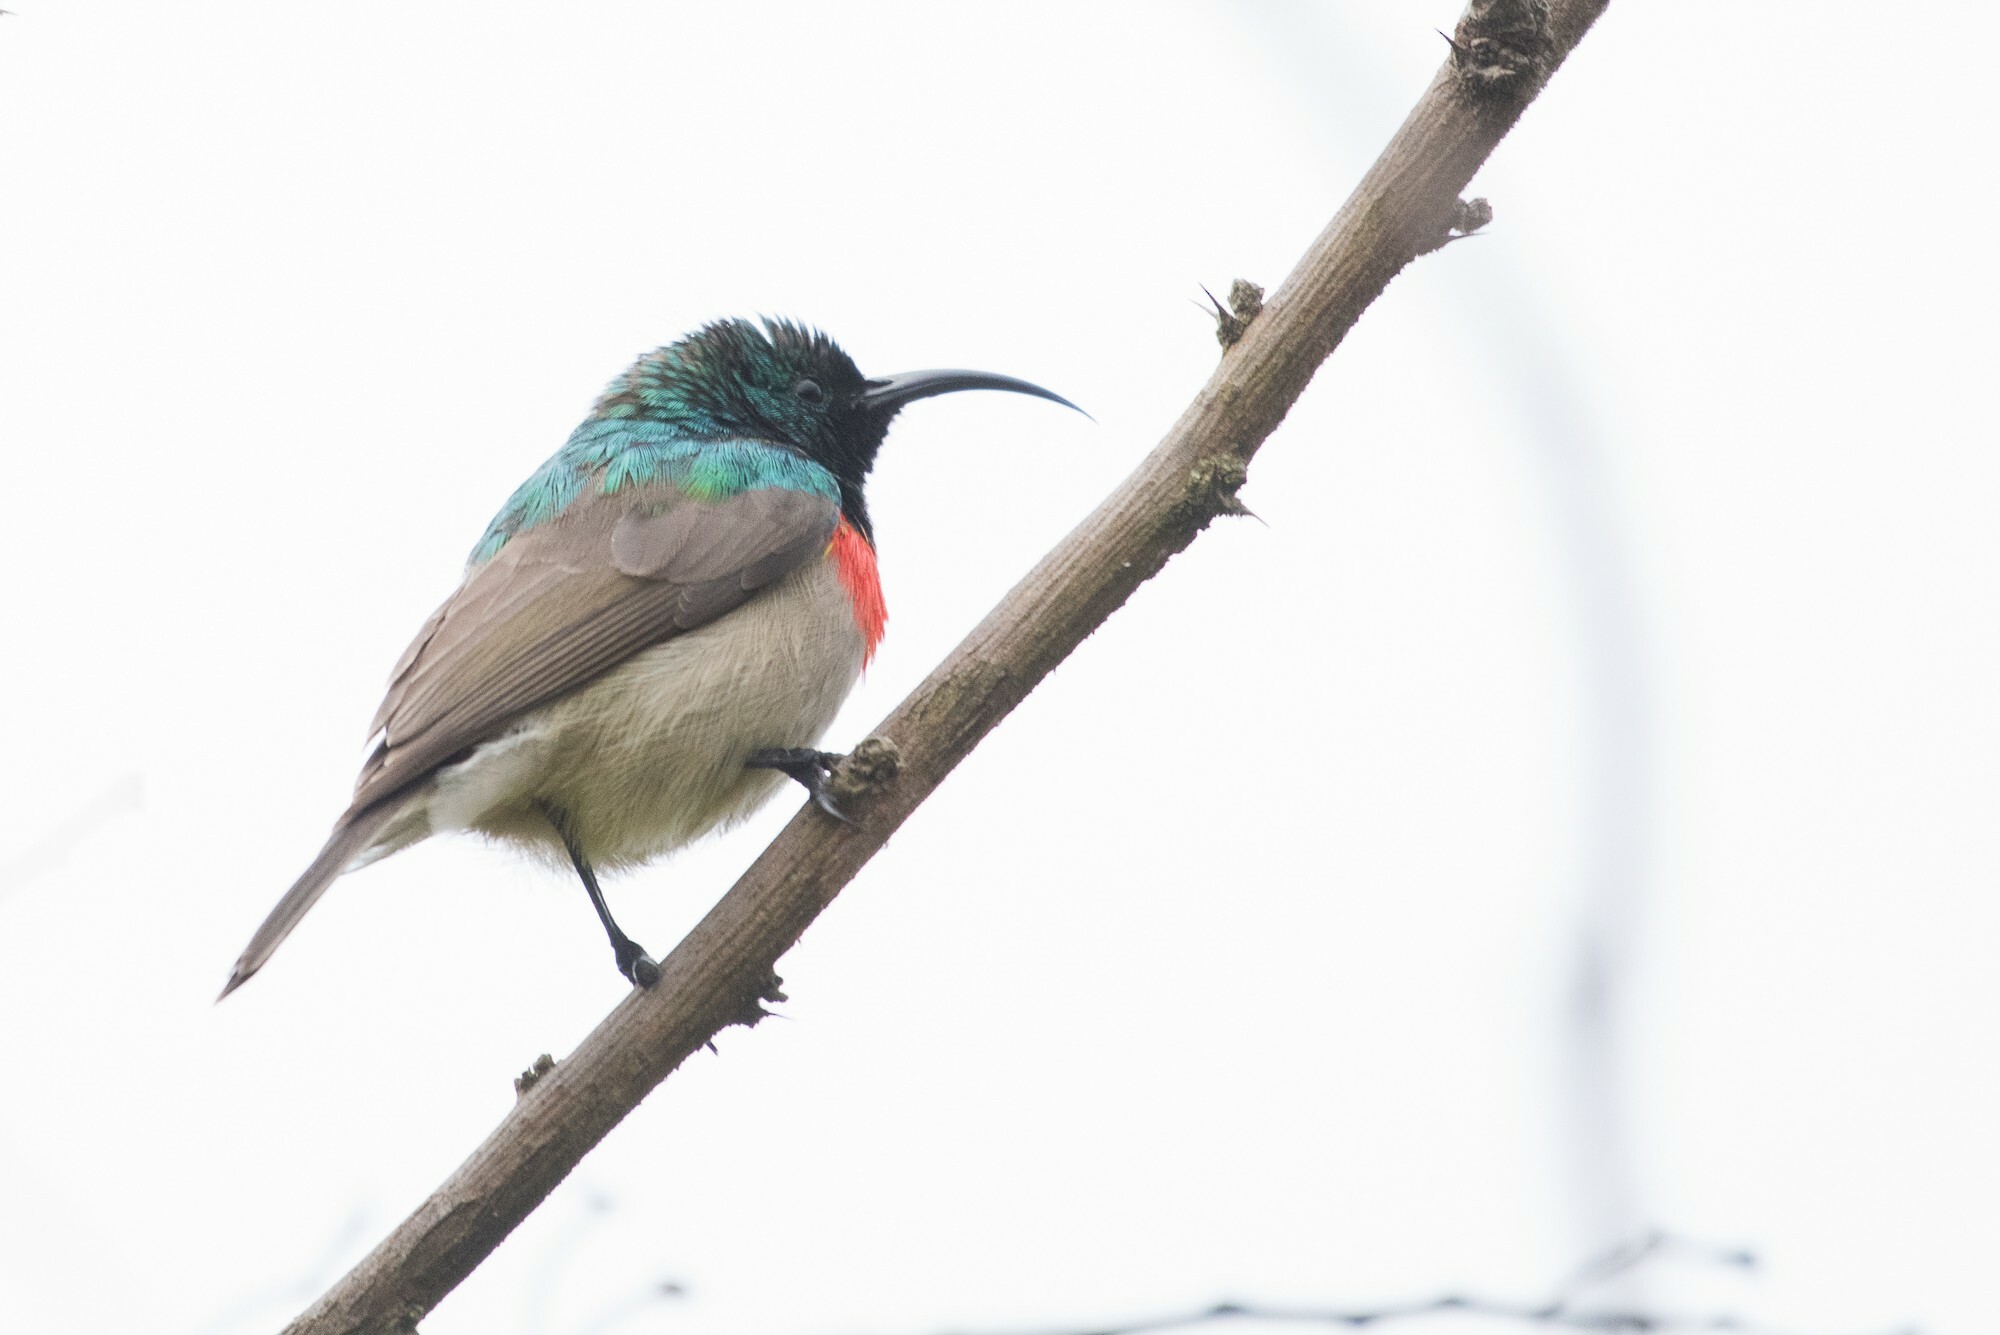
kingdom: Animalia
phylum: Chordata
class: Aves
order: Passeriformes
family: Nectariniidae
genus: Cinnyris
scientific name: Cinnyris manoensis
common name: Eastern miombo sunbird
